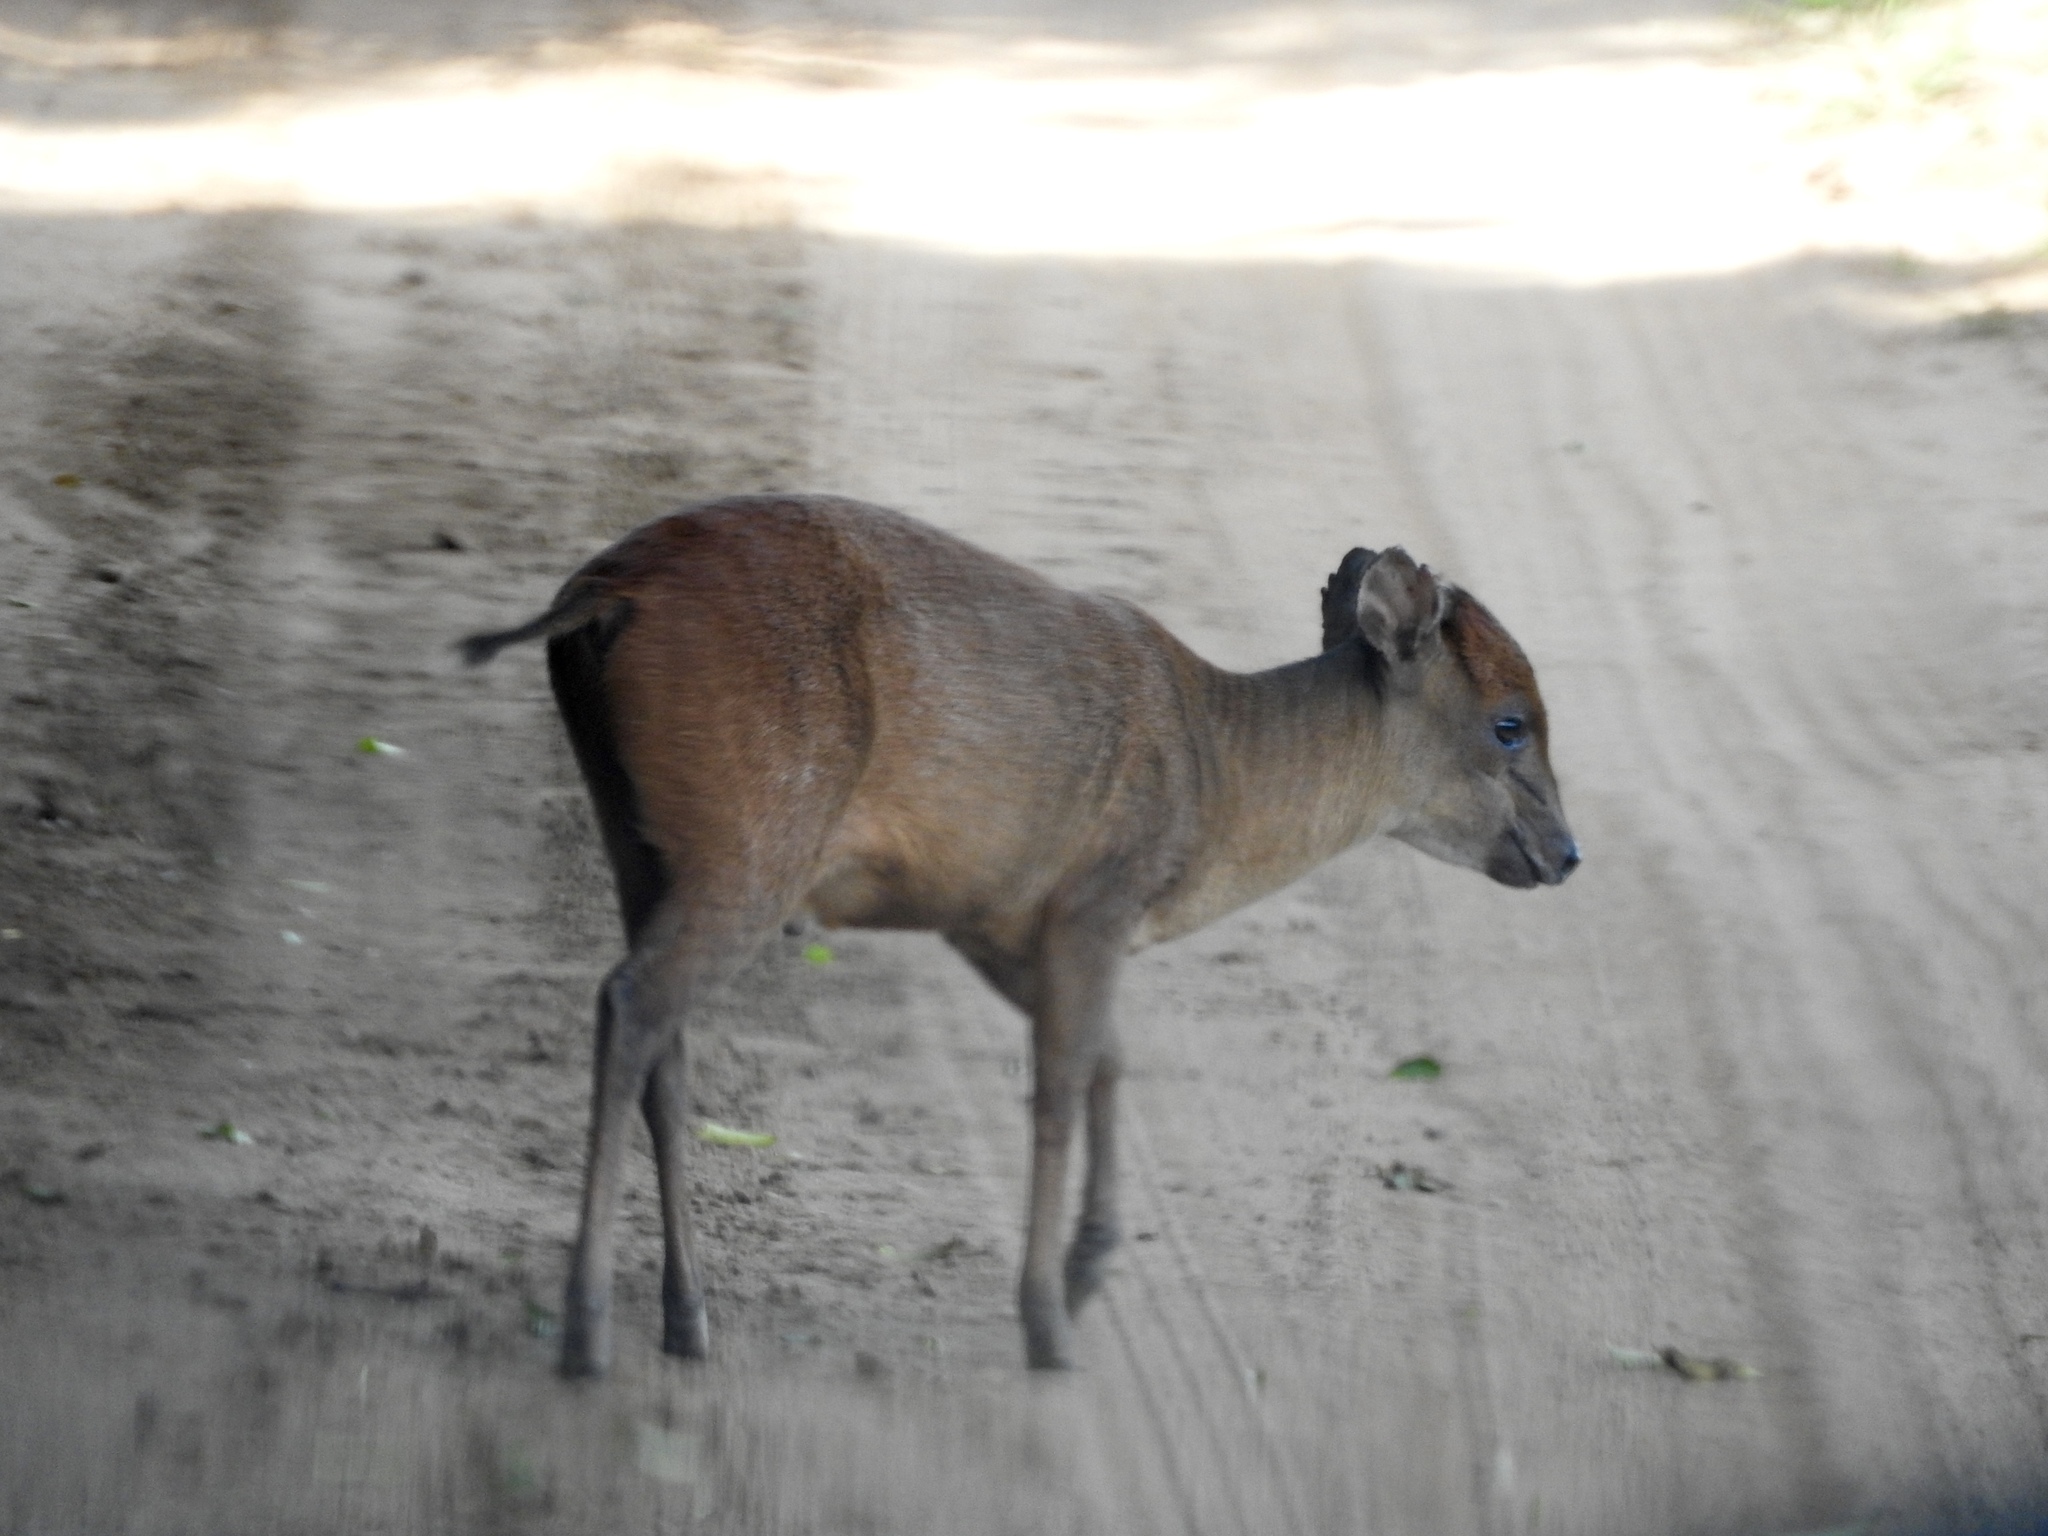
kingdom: Animalia
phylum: Chordata
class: Mammalia
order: Artiodactyla
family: Bovidae
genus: Cephalophus
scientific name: Cephalophus natalensis
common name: Red duiker
